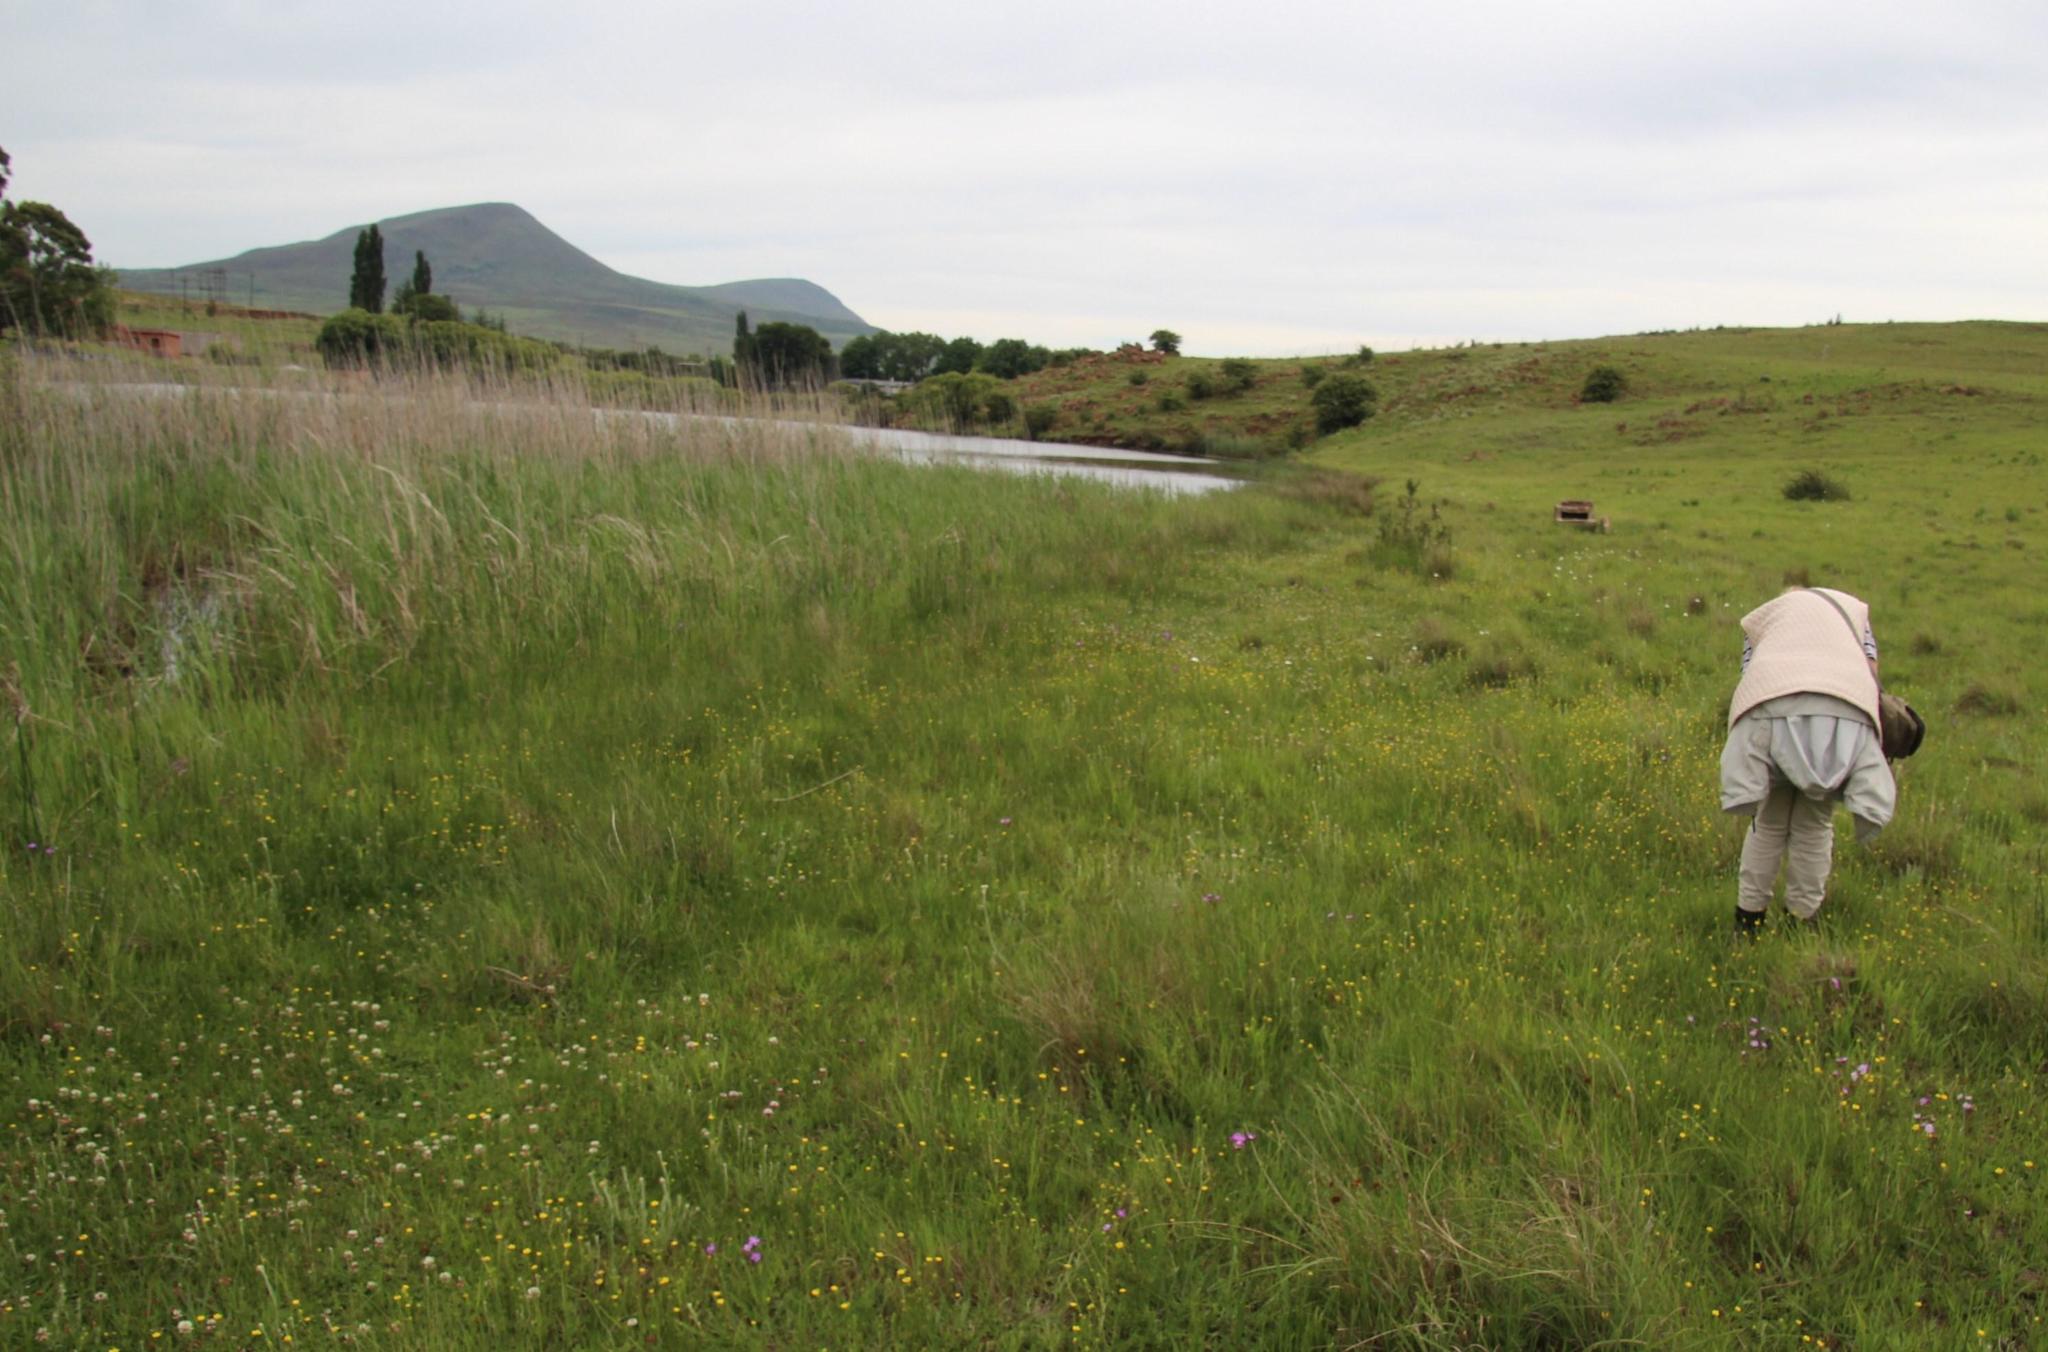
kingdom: Plantae
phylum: Tracheophyta
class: Liliopsida
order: Poales
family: Poaceae
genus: Phragmites
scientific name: Phragmites australis
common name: Common reed
